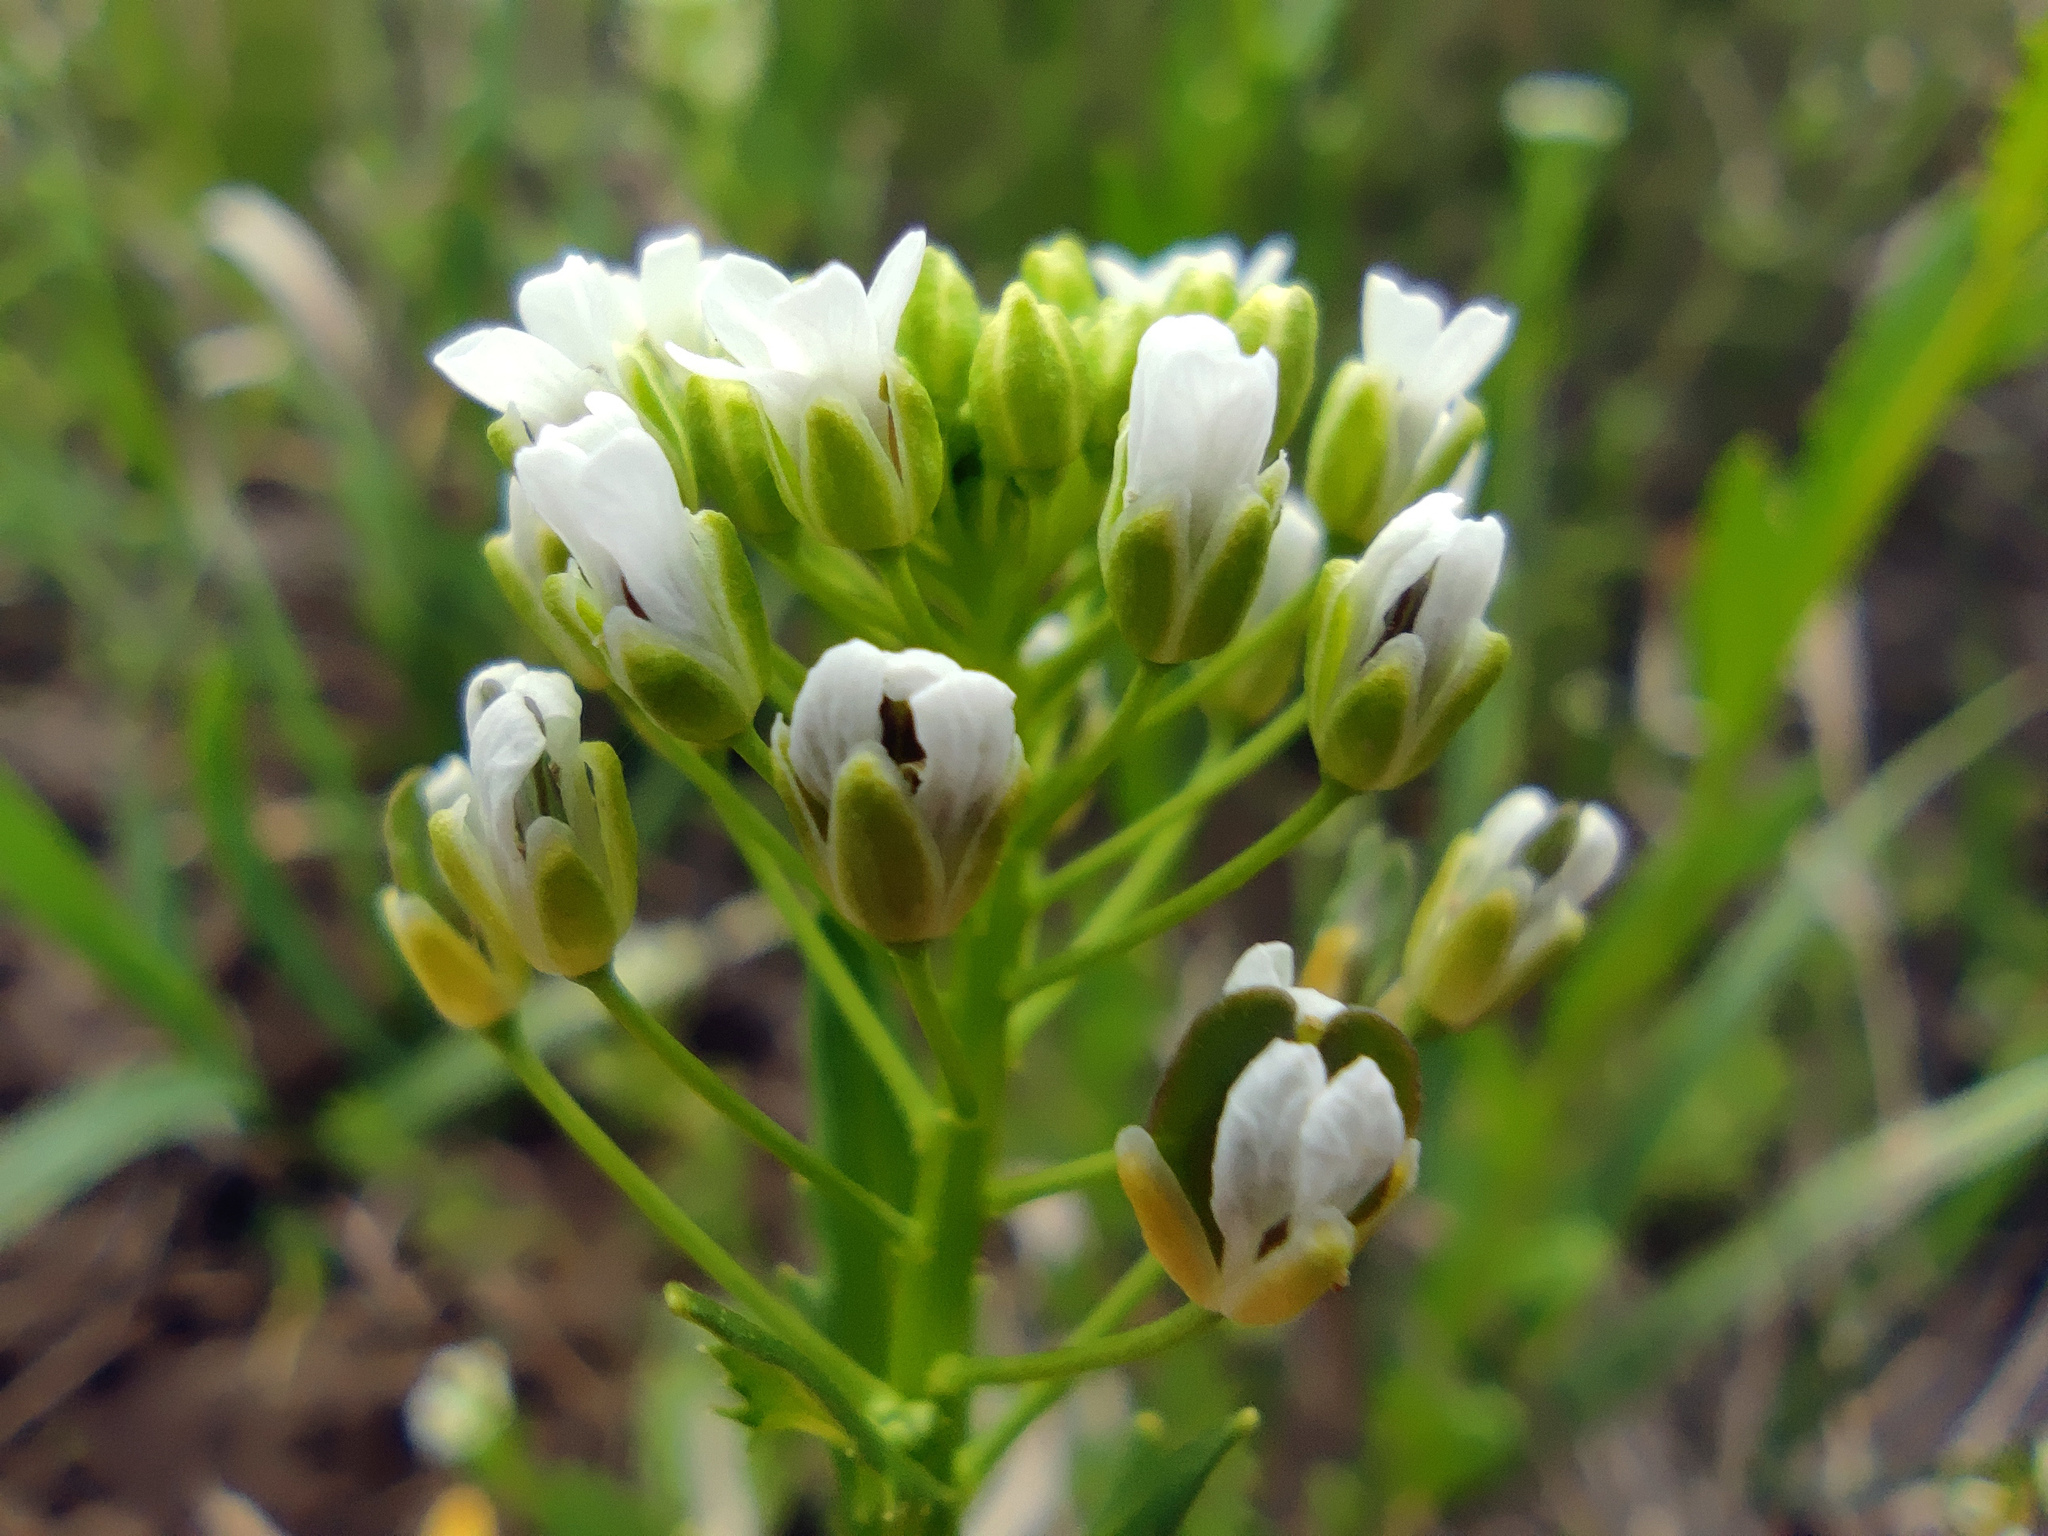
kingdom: Plantae
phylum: Tracheophyta
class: Magnoliopsida
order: Brassicales
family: Brassicaceae
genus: Thlaspi
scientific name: Thlaspi arvense
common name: Field pennycress
